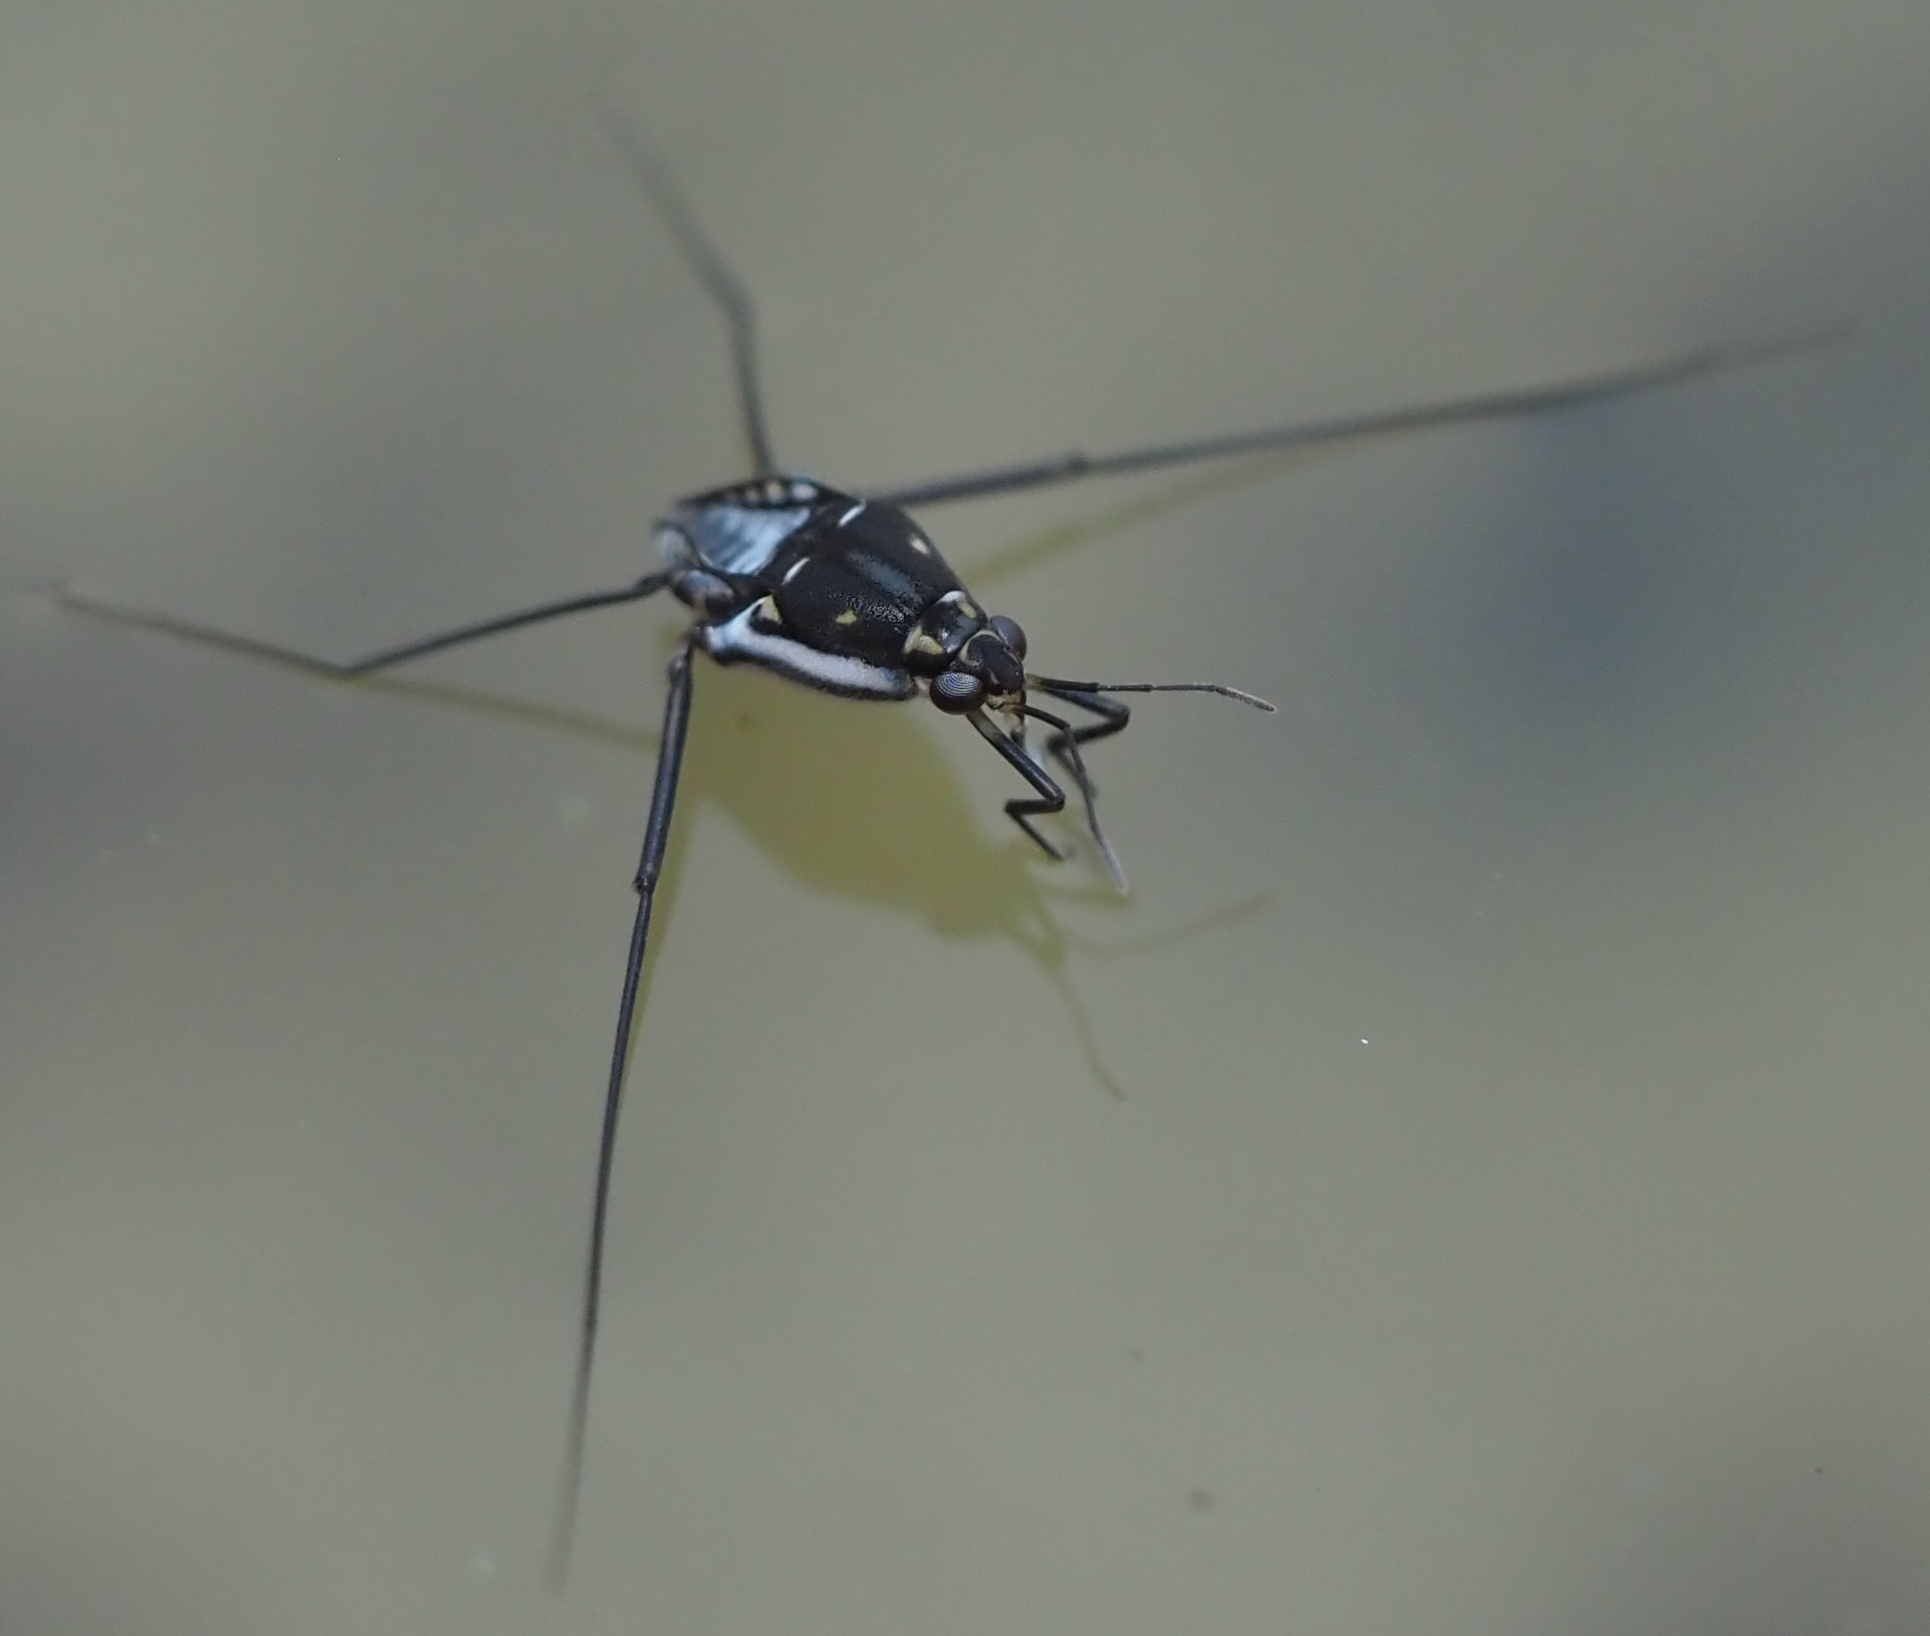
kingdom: Animalia
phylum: Arthropoda
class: Insecta
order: Hemiptera
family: Gerridae
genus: Trepobates
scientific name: Trepobates subnitidus
